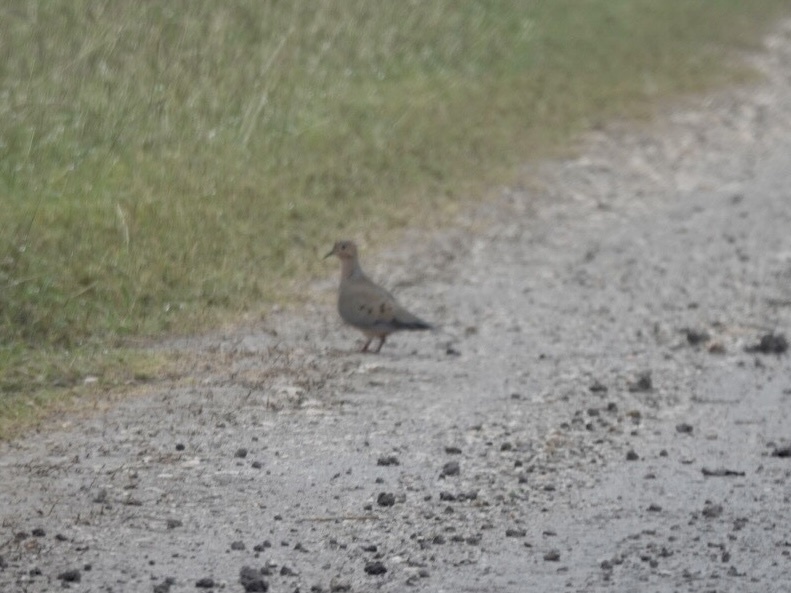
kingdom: Animalia
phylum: Chordata
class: Aves
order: Columbiformes
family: Columbidae
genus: Zenaida
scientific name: Zenaida macroura
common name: Mourning dove
